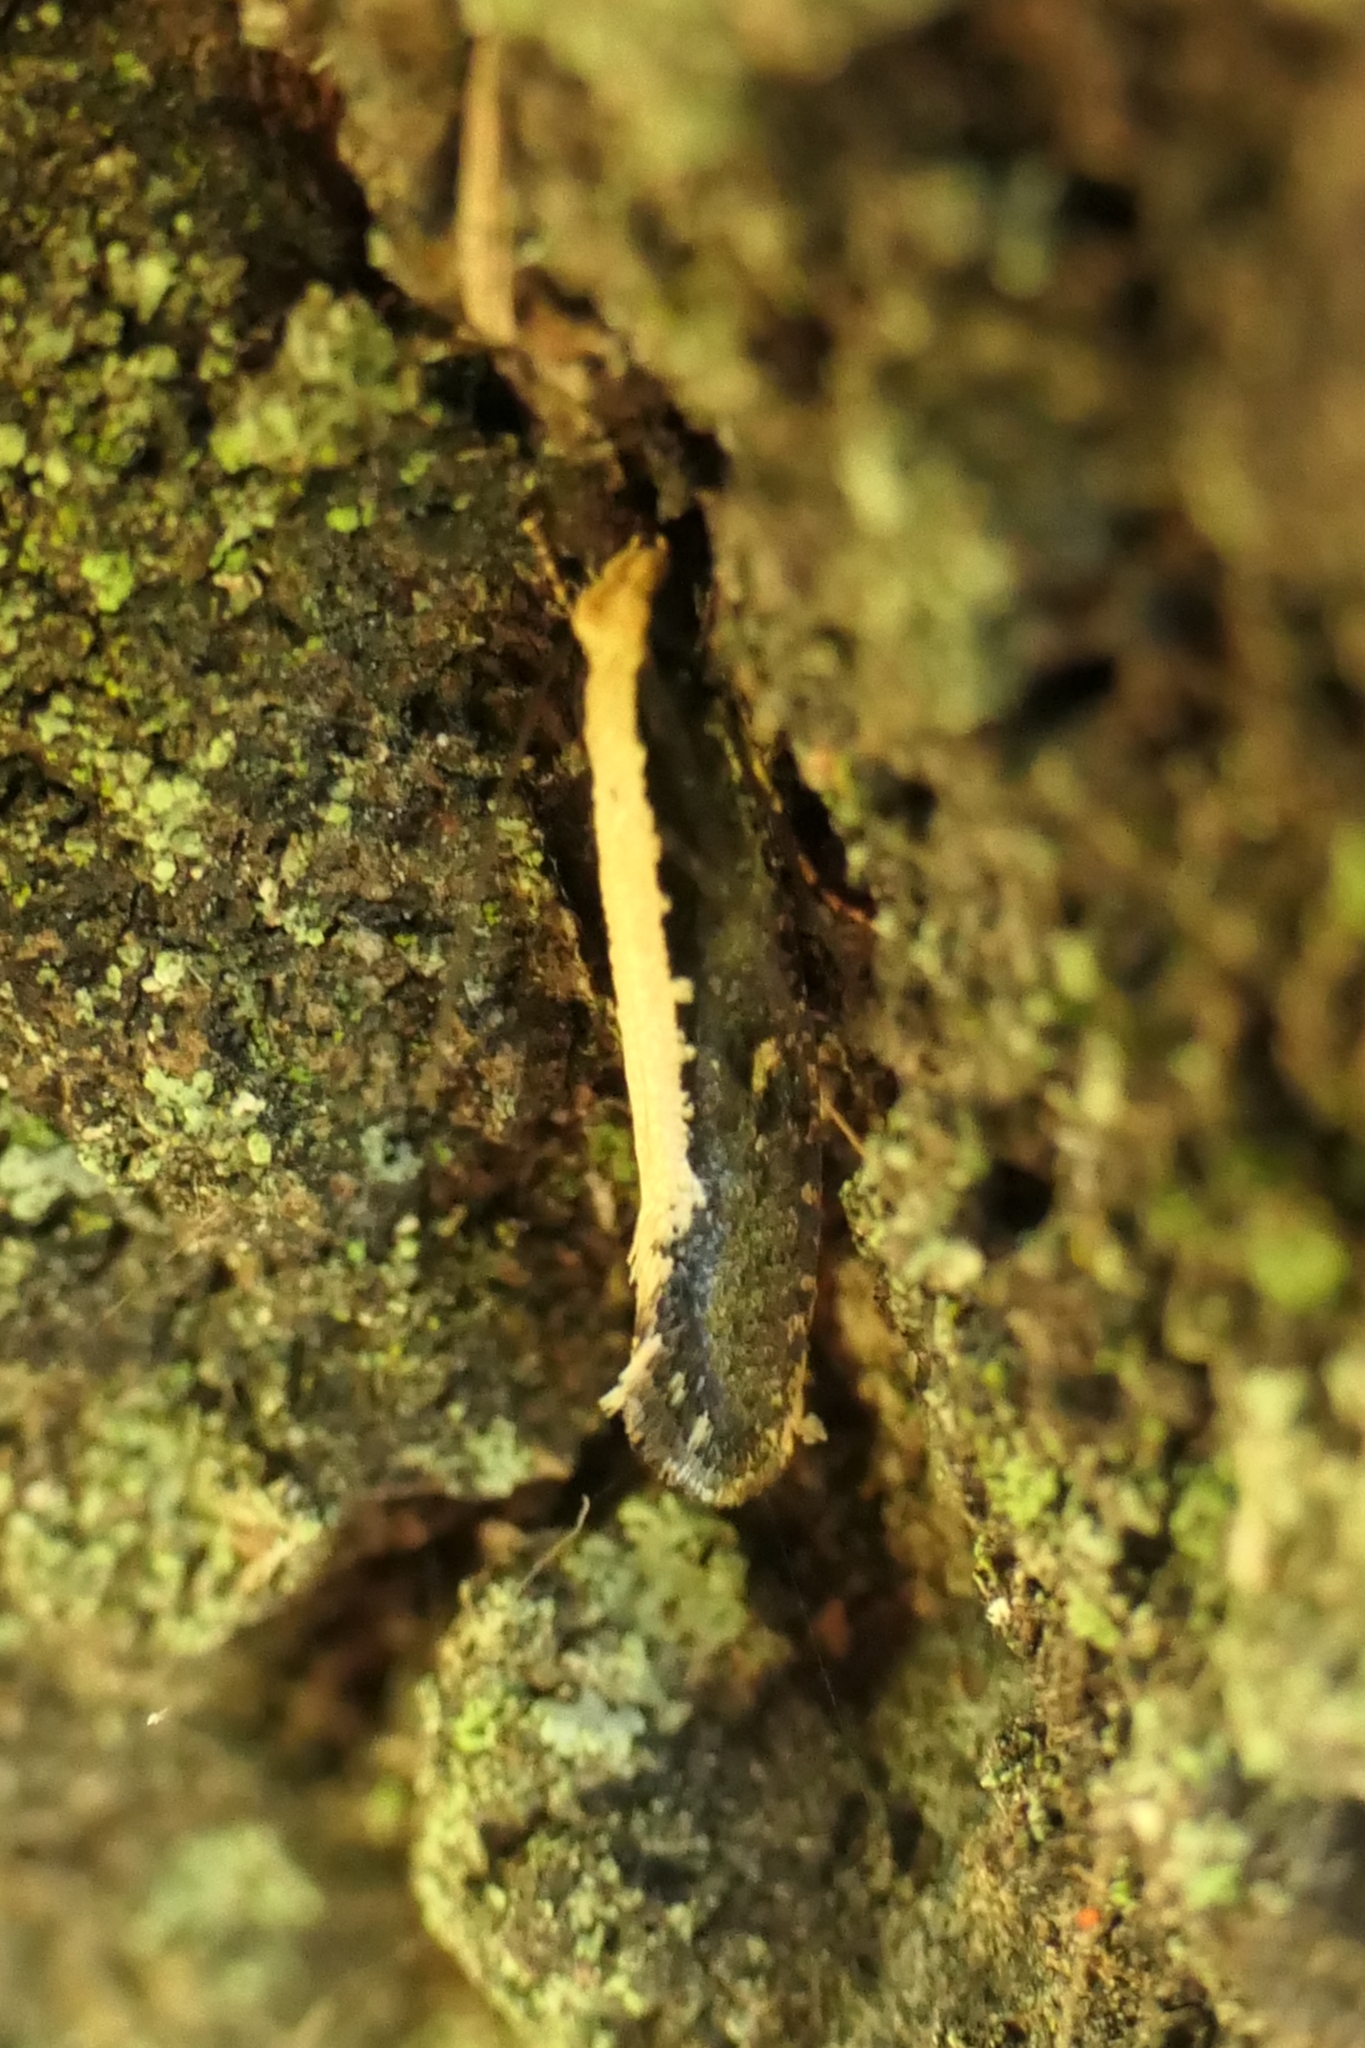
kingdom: Animalia
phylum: Arthropoda
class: Insecta
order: Lepidoptera
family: Tineidae
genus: Monopis
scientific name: Monopis ethelella
